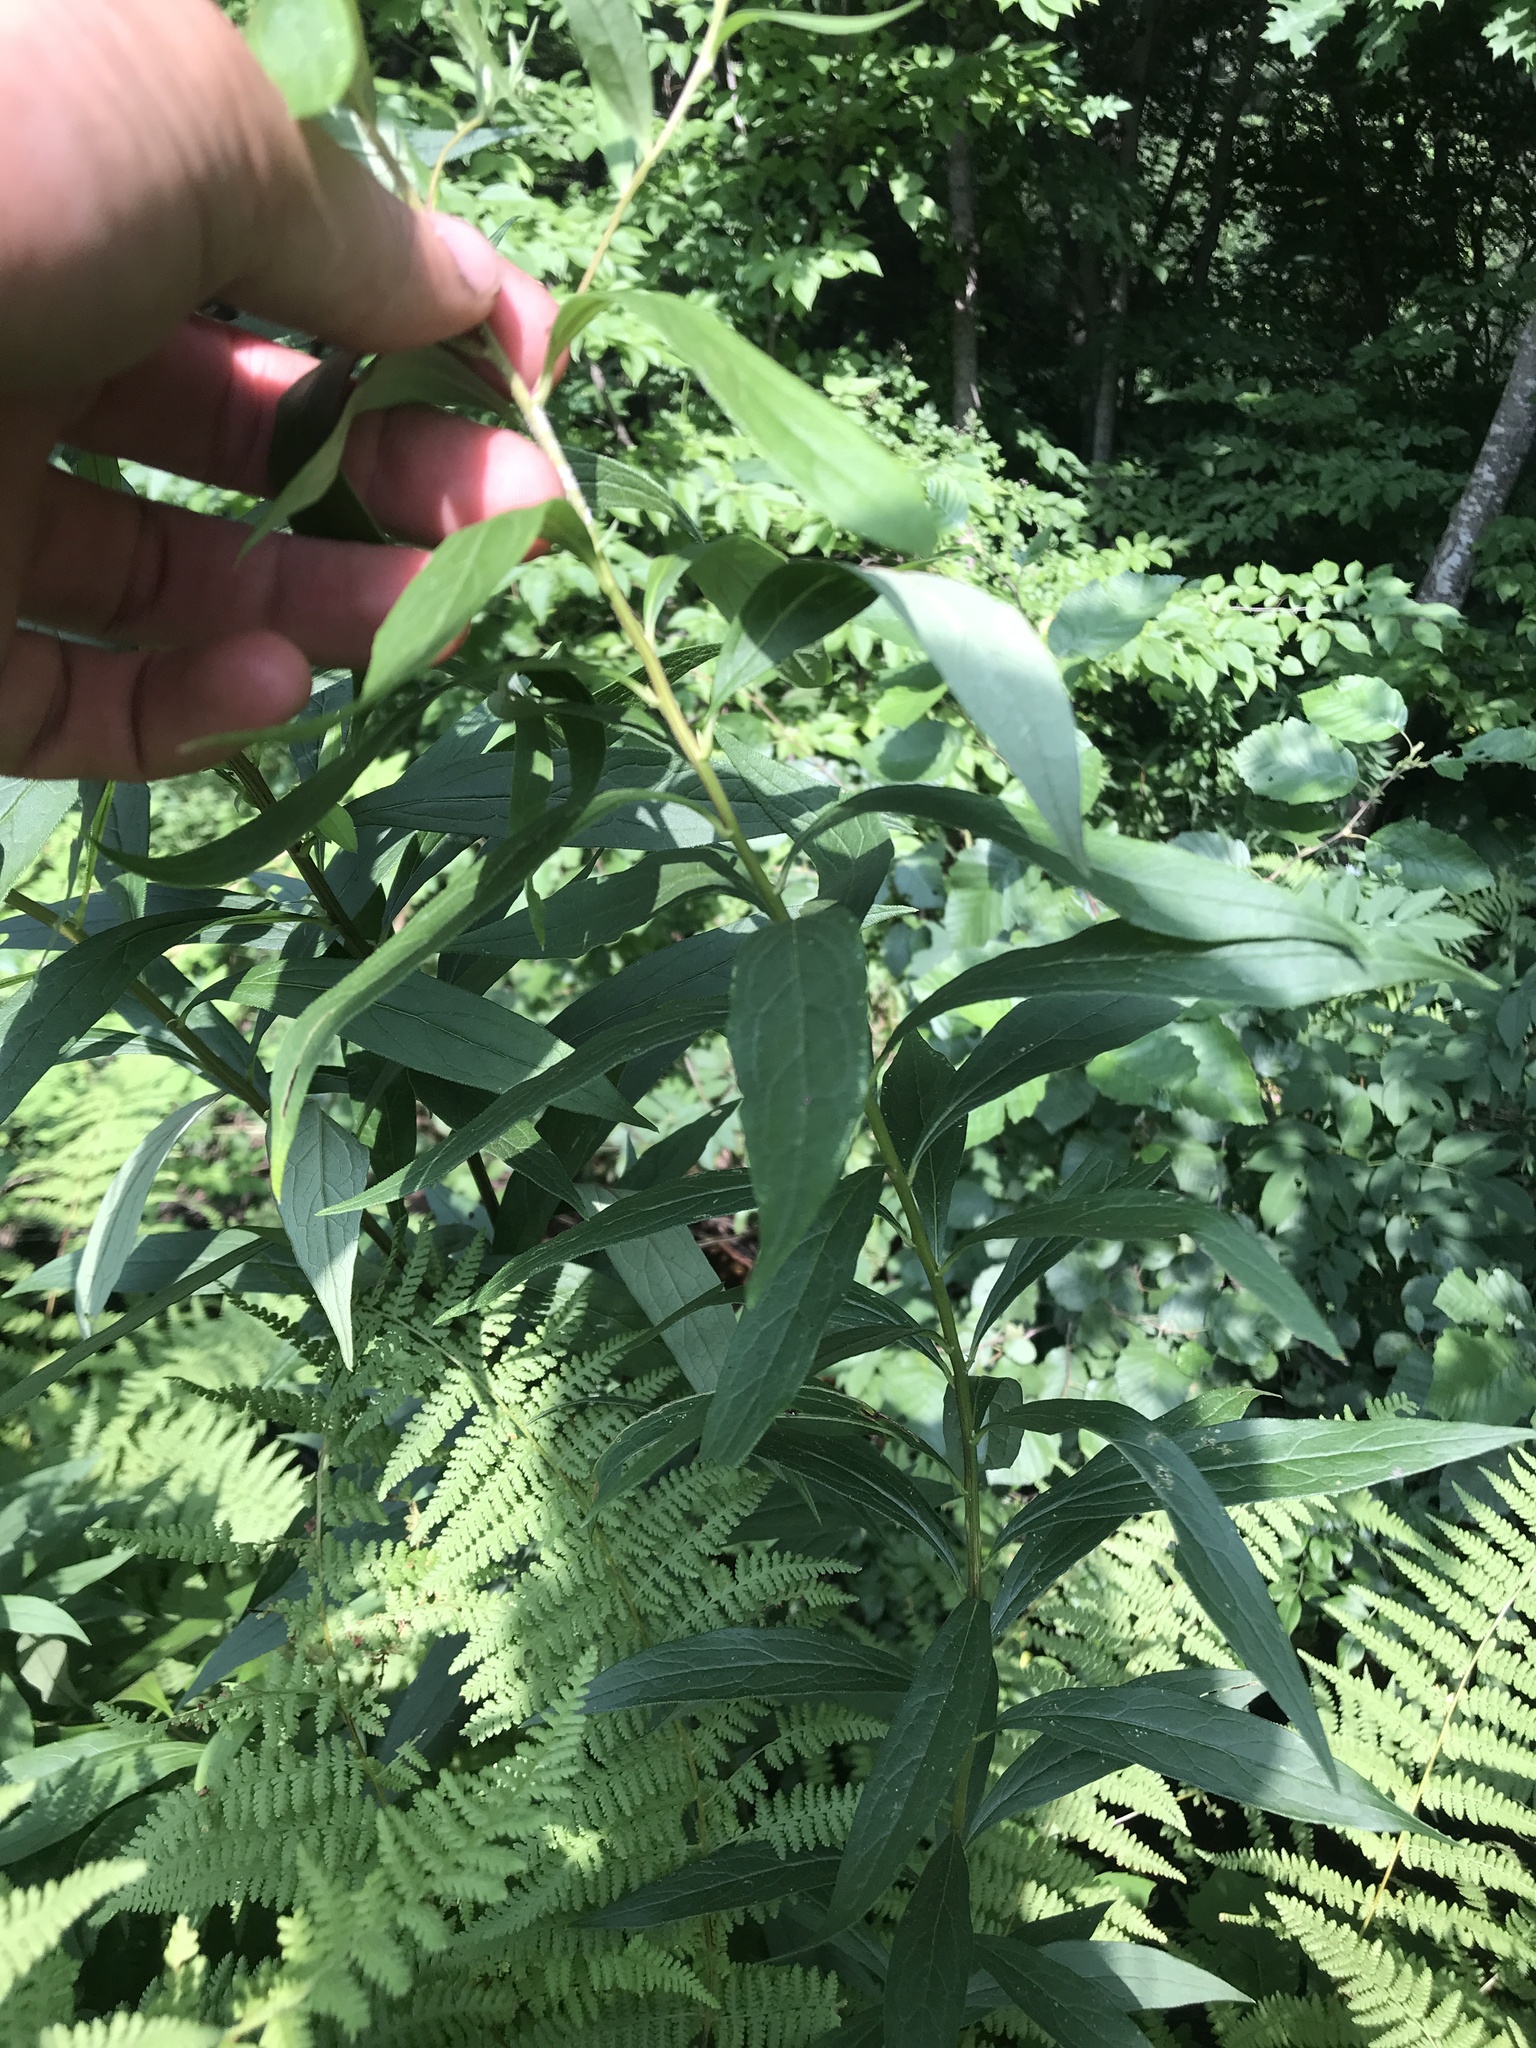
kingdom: Plantae
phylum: Tracheophyta
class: Magnoliopsida
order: Asterales
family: Asteraceae
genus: Doellingeria
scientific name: Doellingeria umbellata
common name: Flat-top white aster
